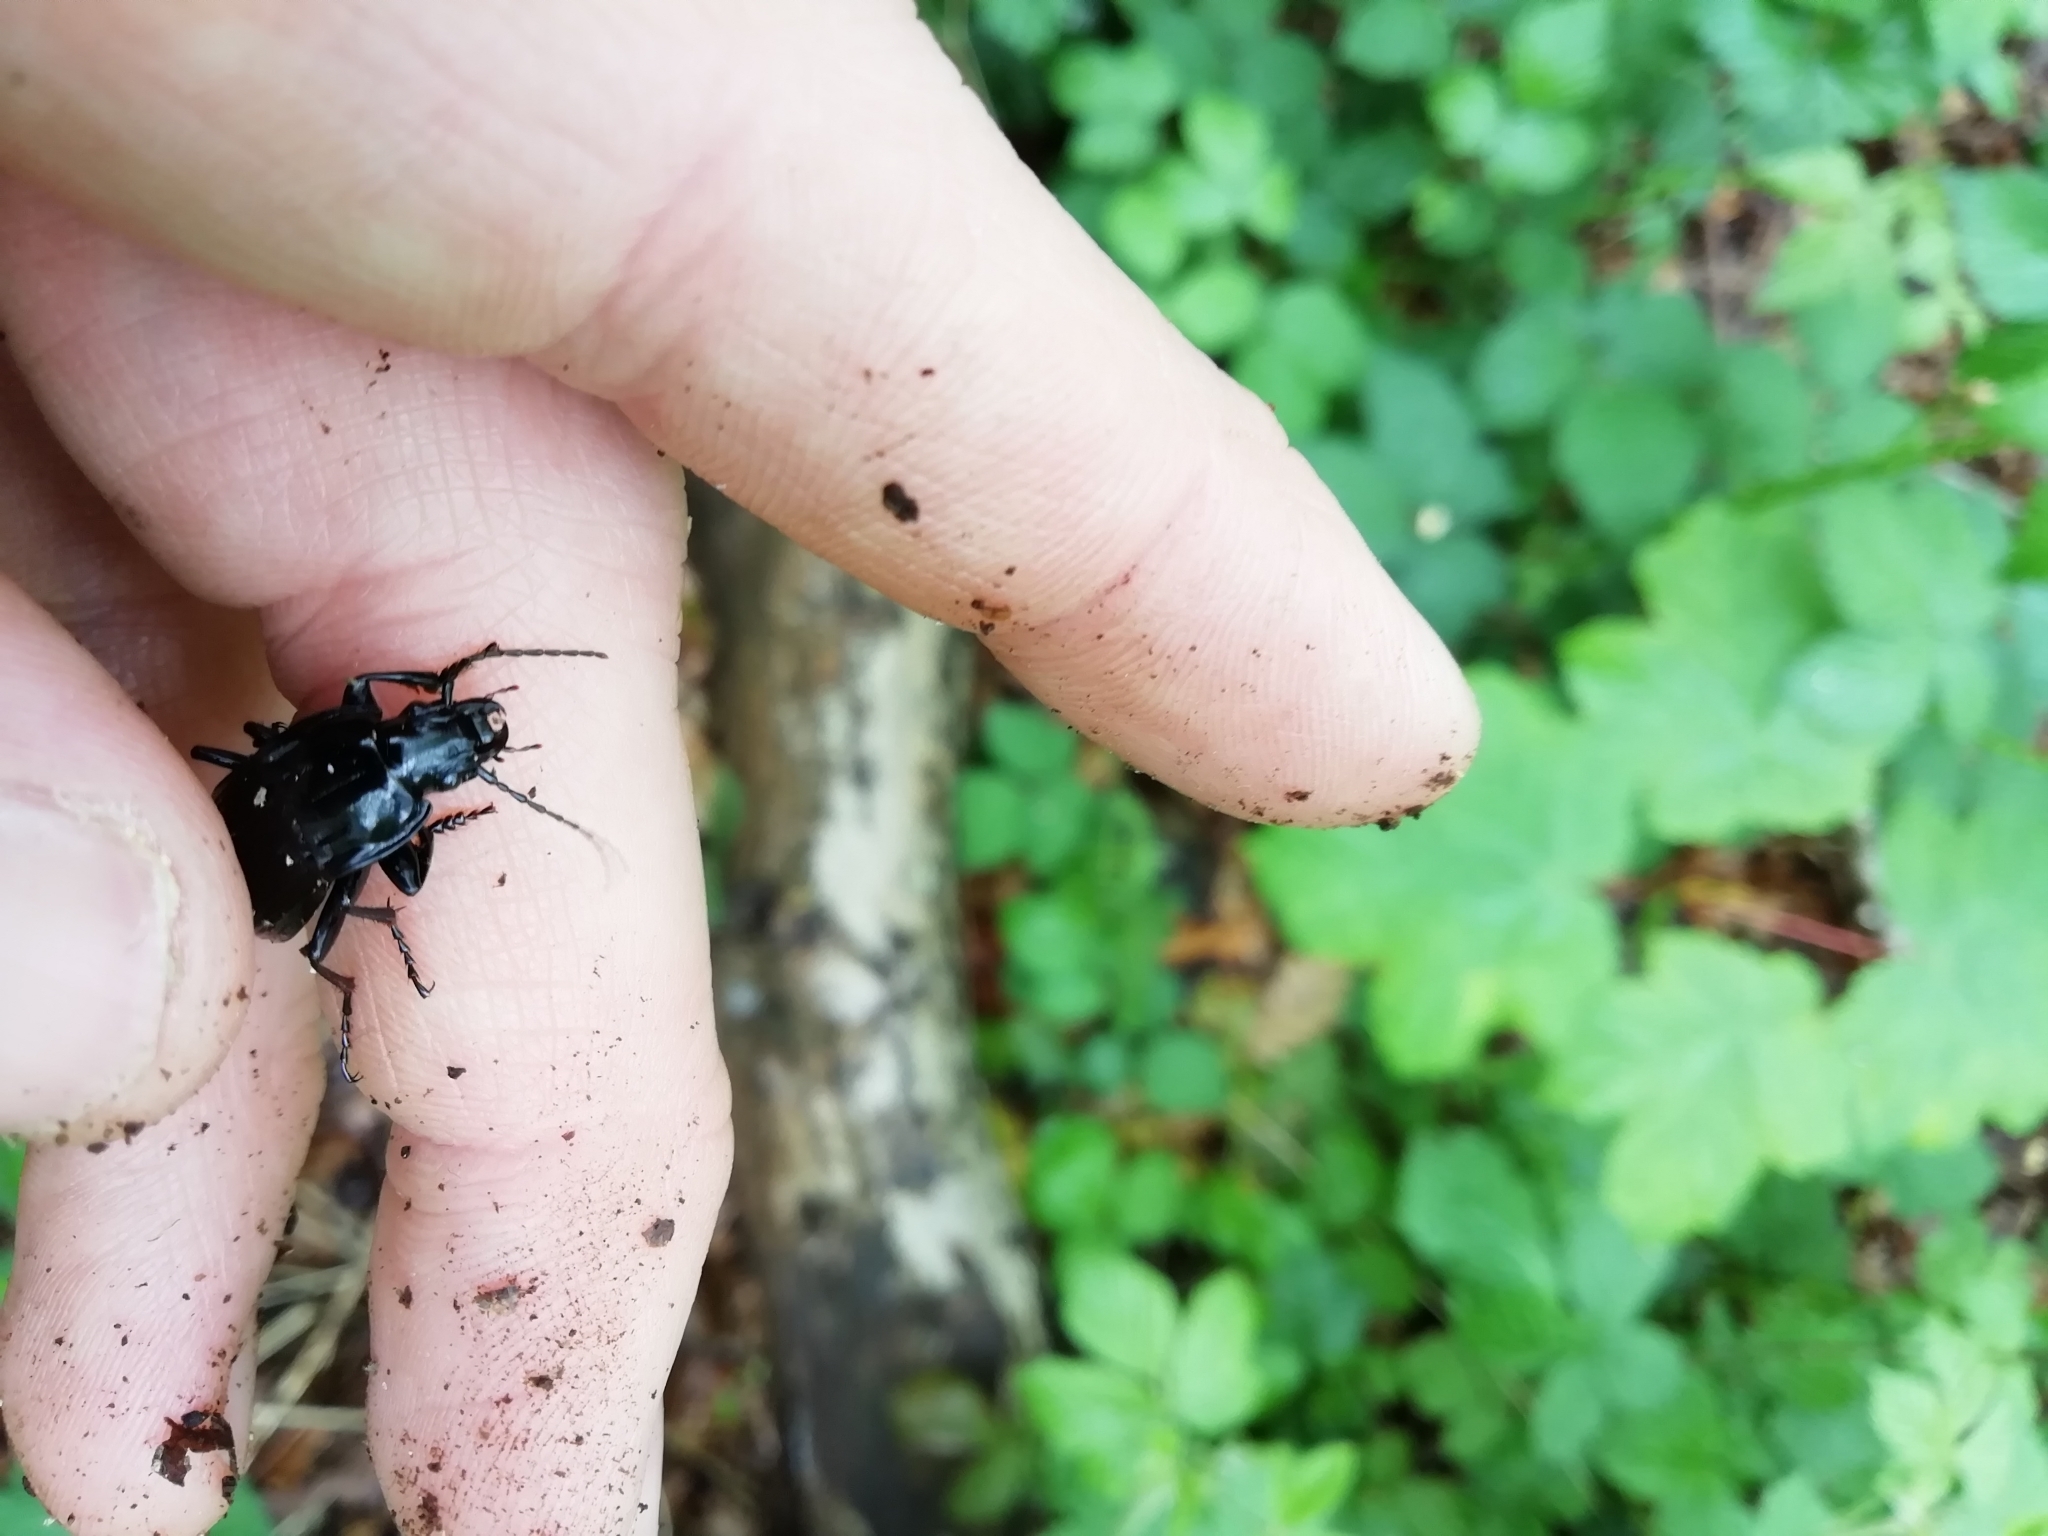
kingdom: Animalia
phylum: Arthropoda
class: Insecta
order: Coleoptera
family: Carabidae
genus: Abax
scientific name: Abax parallelepipedus
